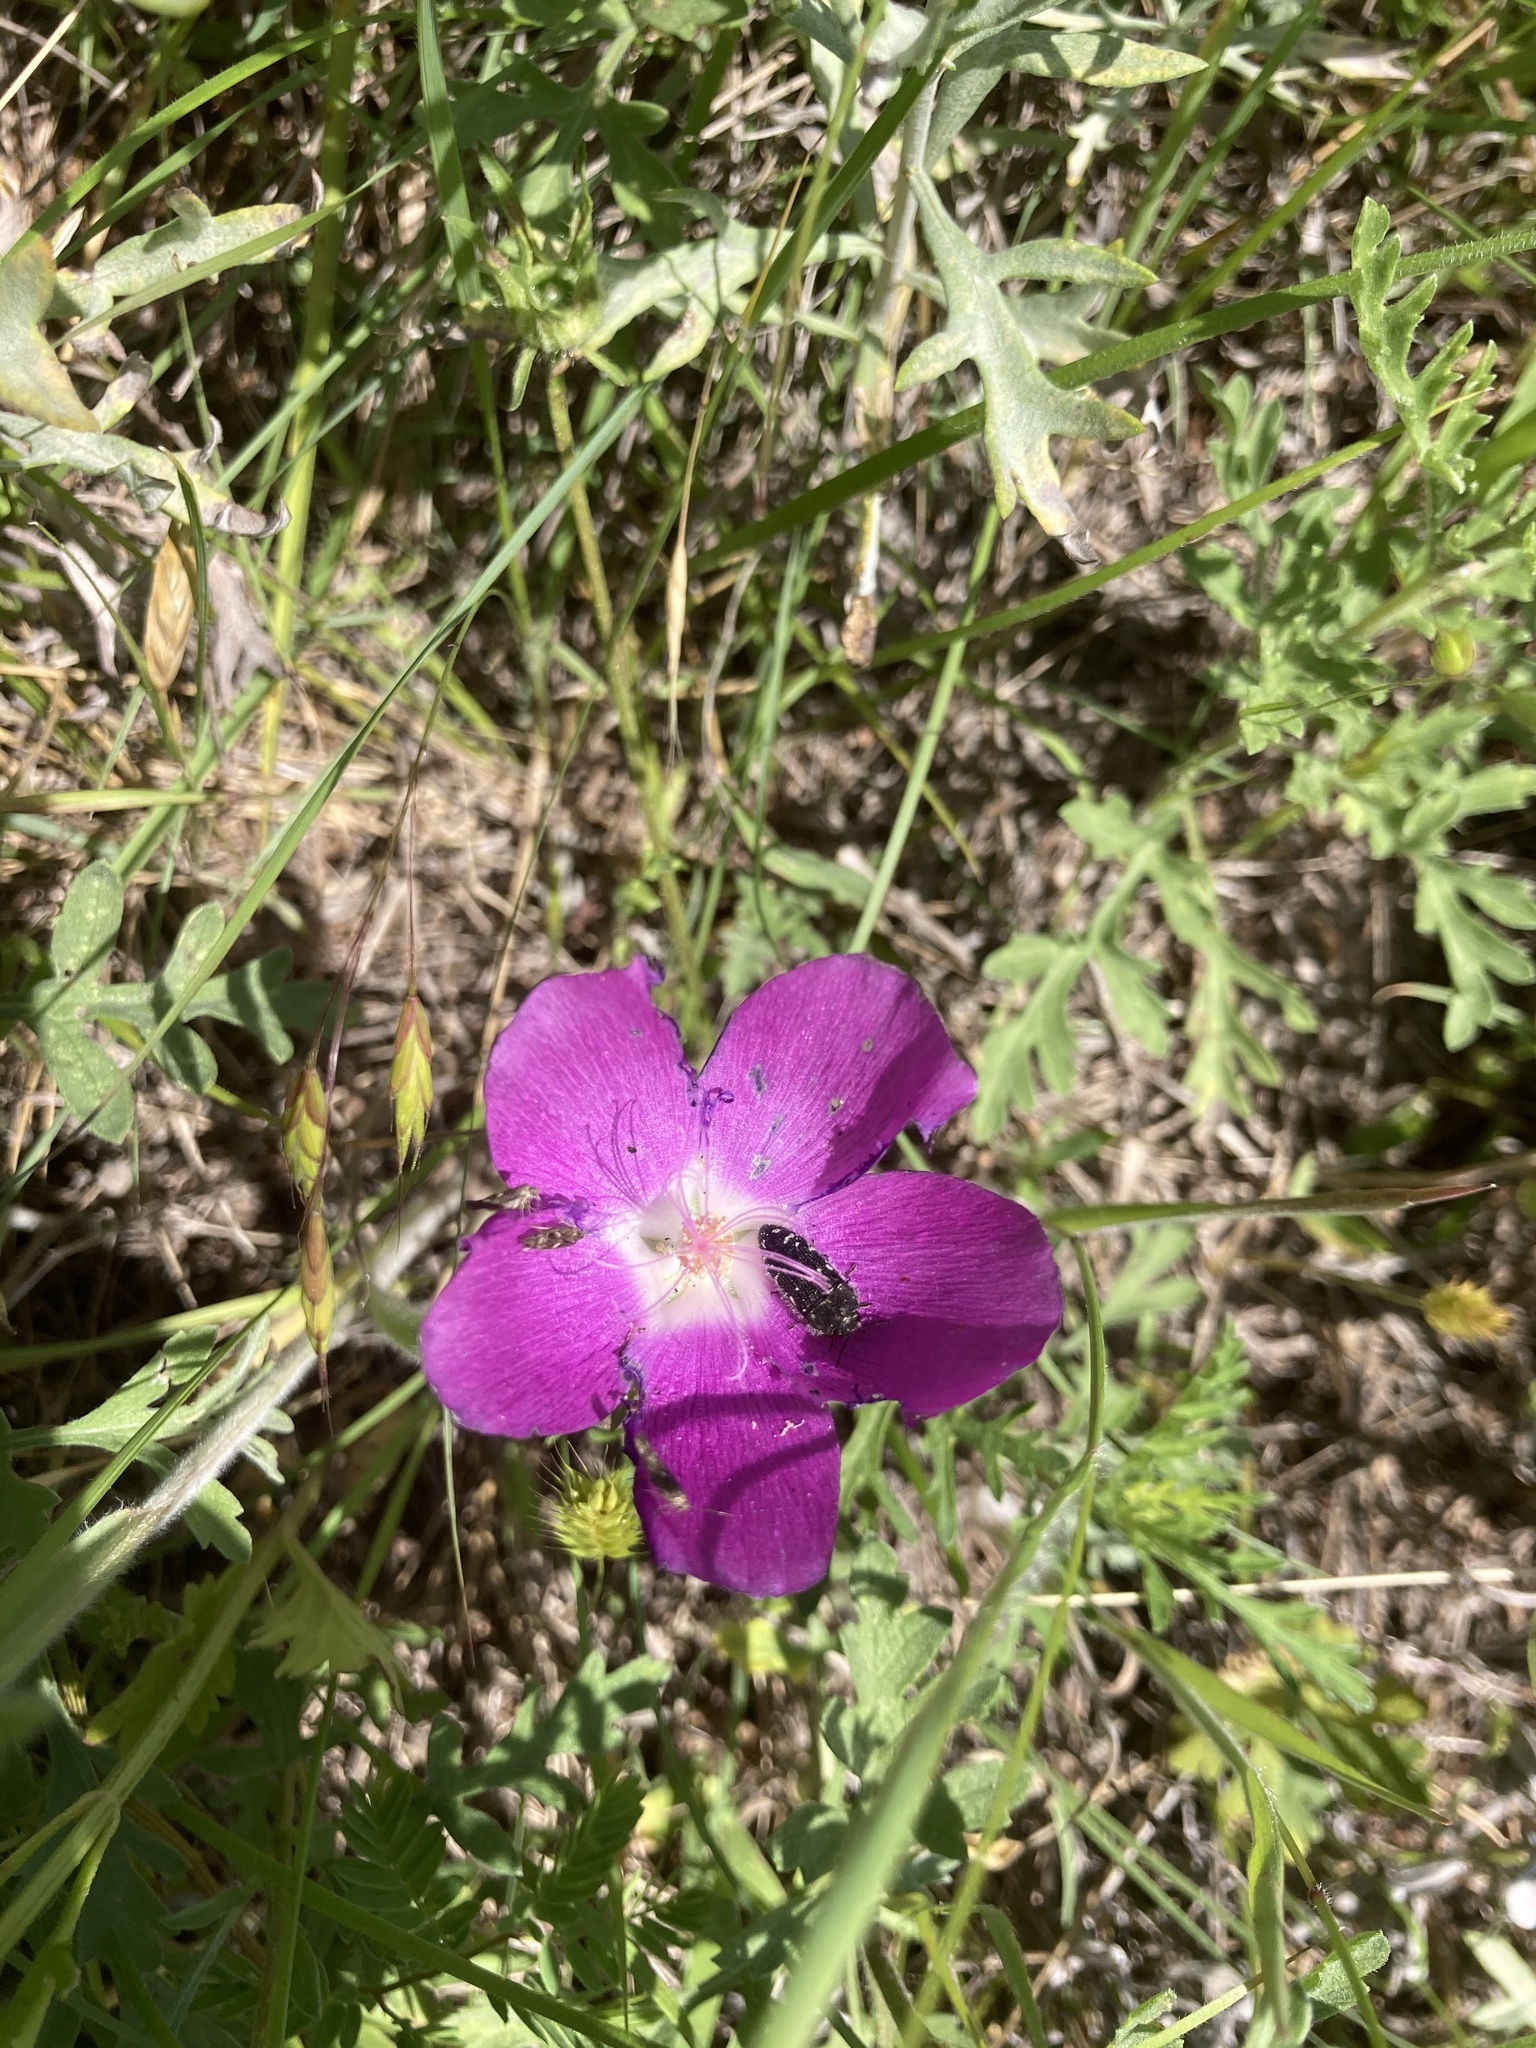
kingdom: Plantae
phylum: Tracheophyta
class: Magnoliopsida
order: Malvales
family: Malvaceae
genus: Callirhoe
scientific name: Callirhoe involucrata
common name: Purple poppy-mallow
